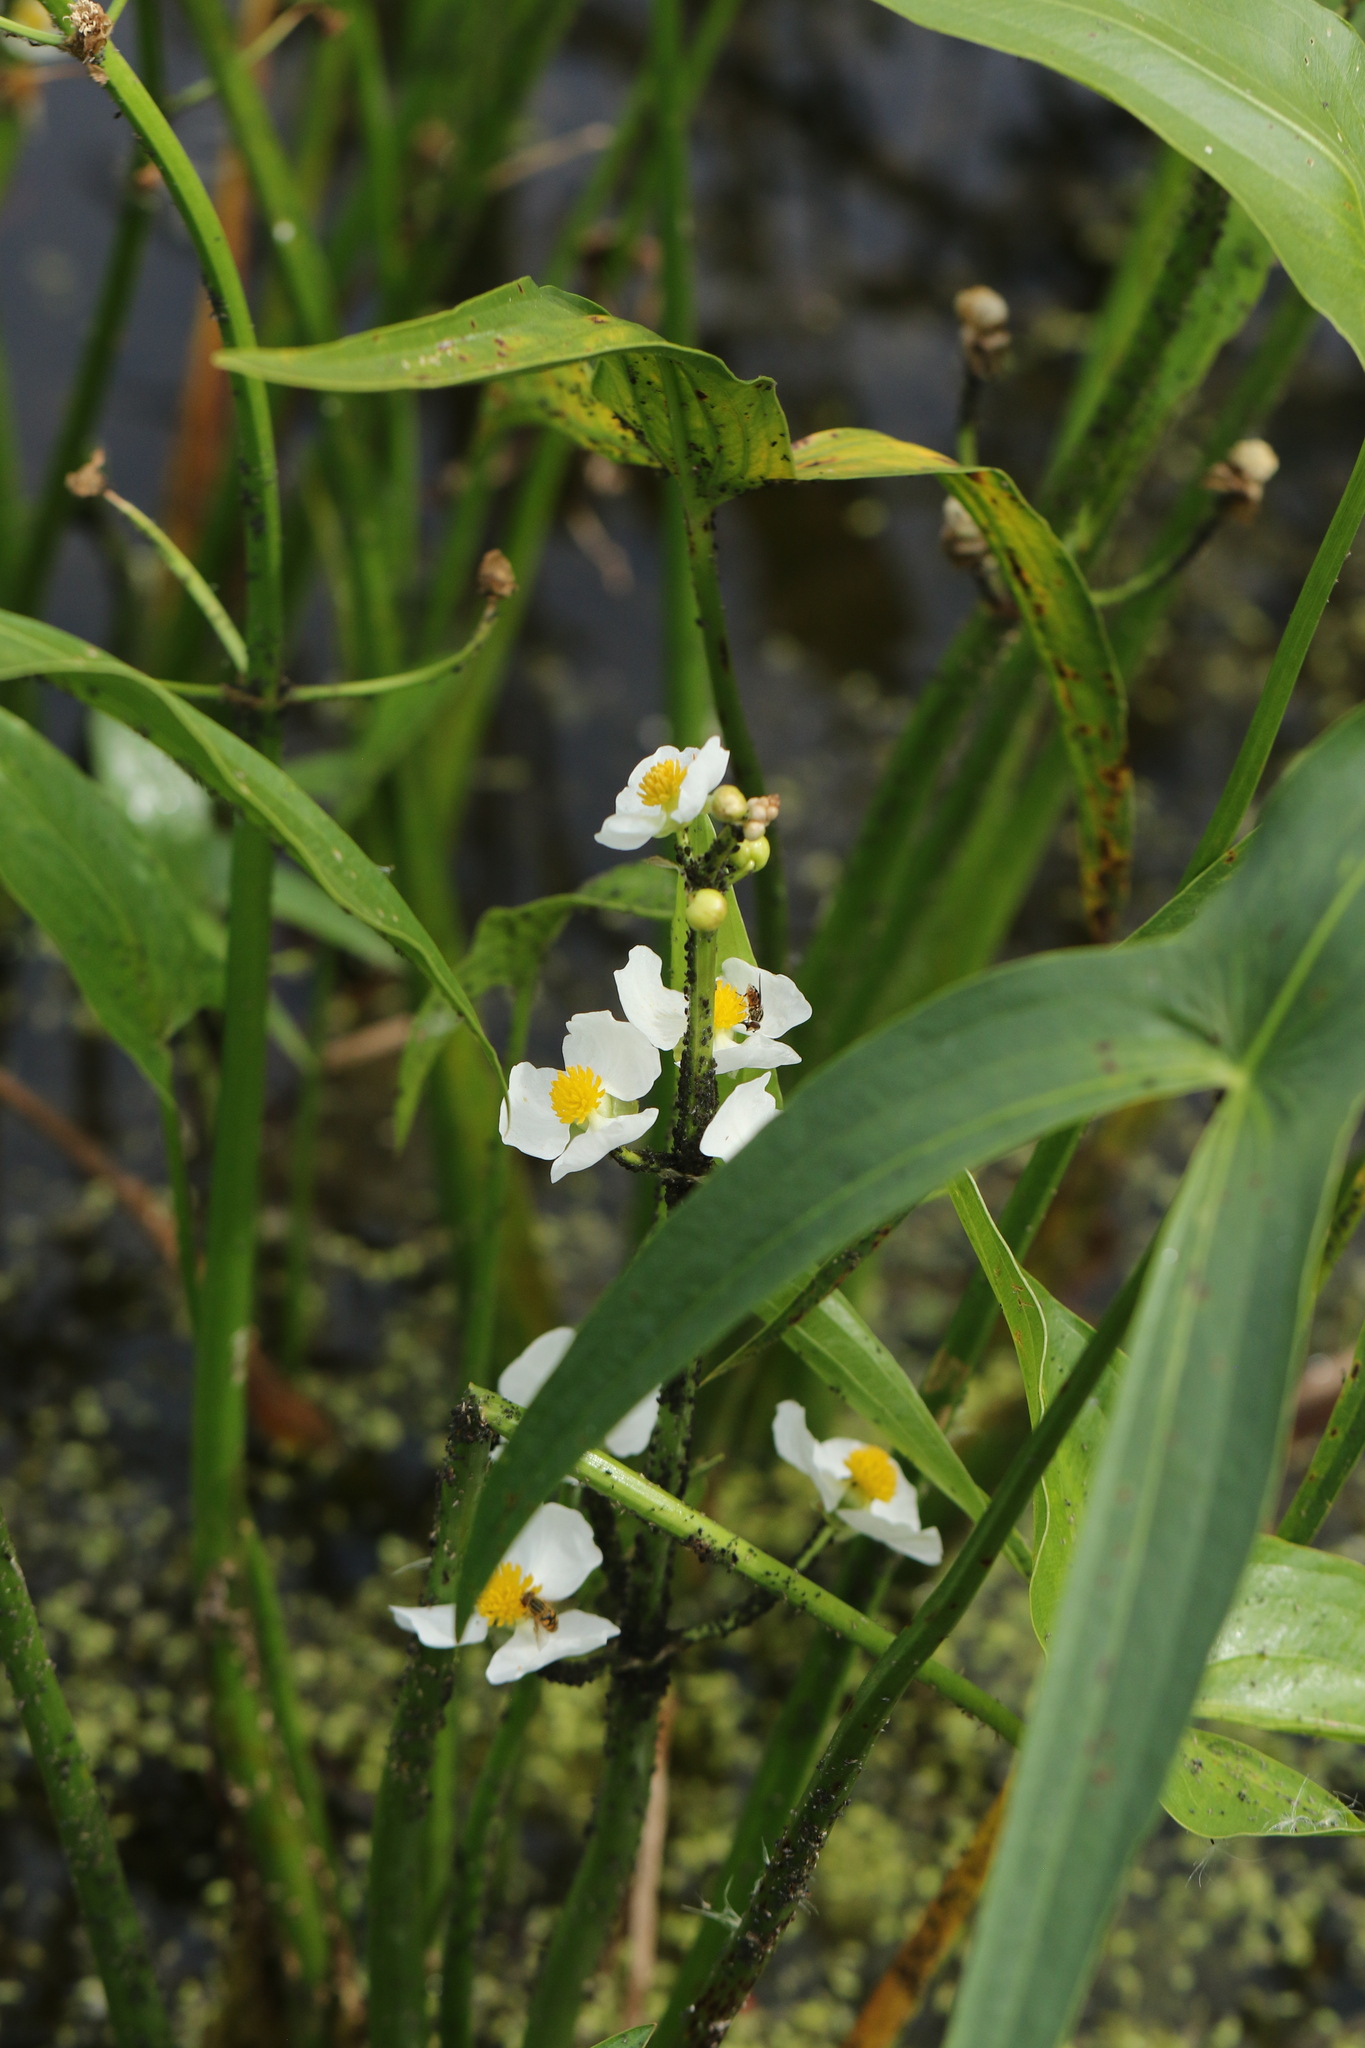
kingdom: Plantae
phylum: Tracheophyta
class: Liliopsida
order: Alismatales
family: Alismataceae
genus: Sagittaria
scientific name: Sagittaria latifolia
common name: Duck-potato
